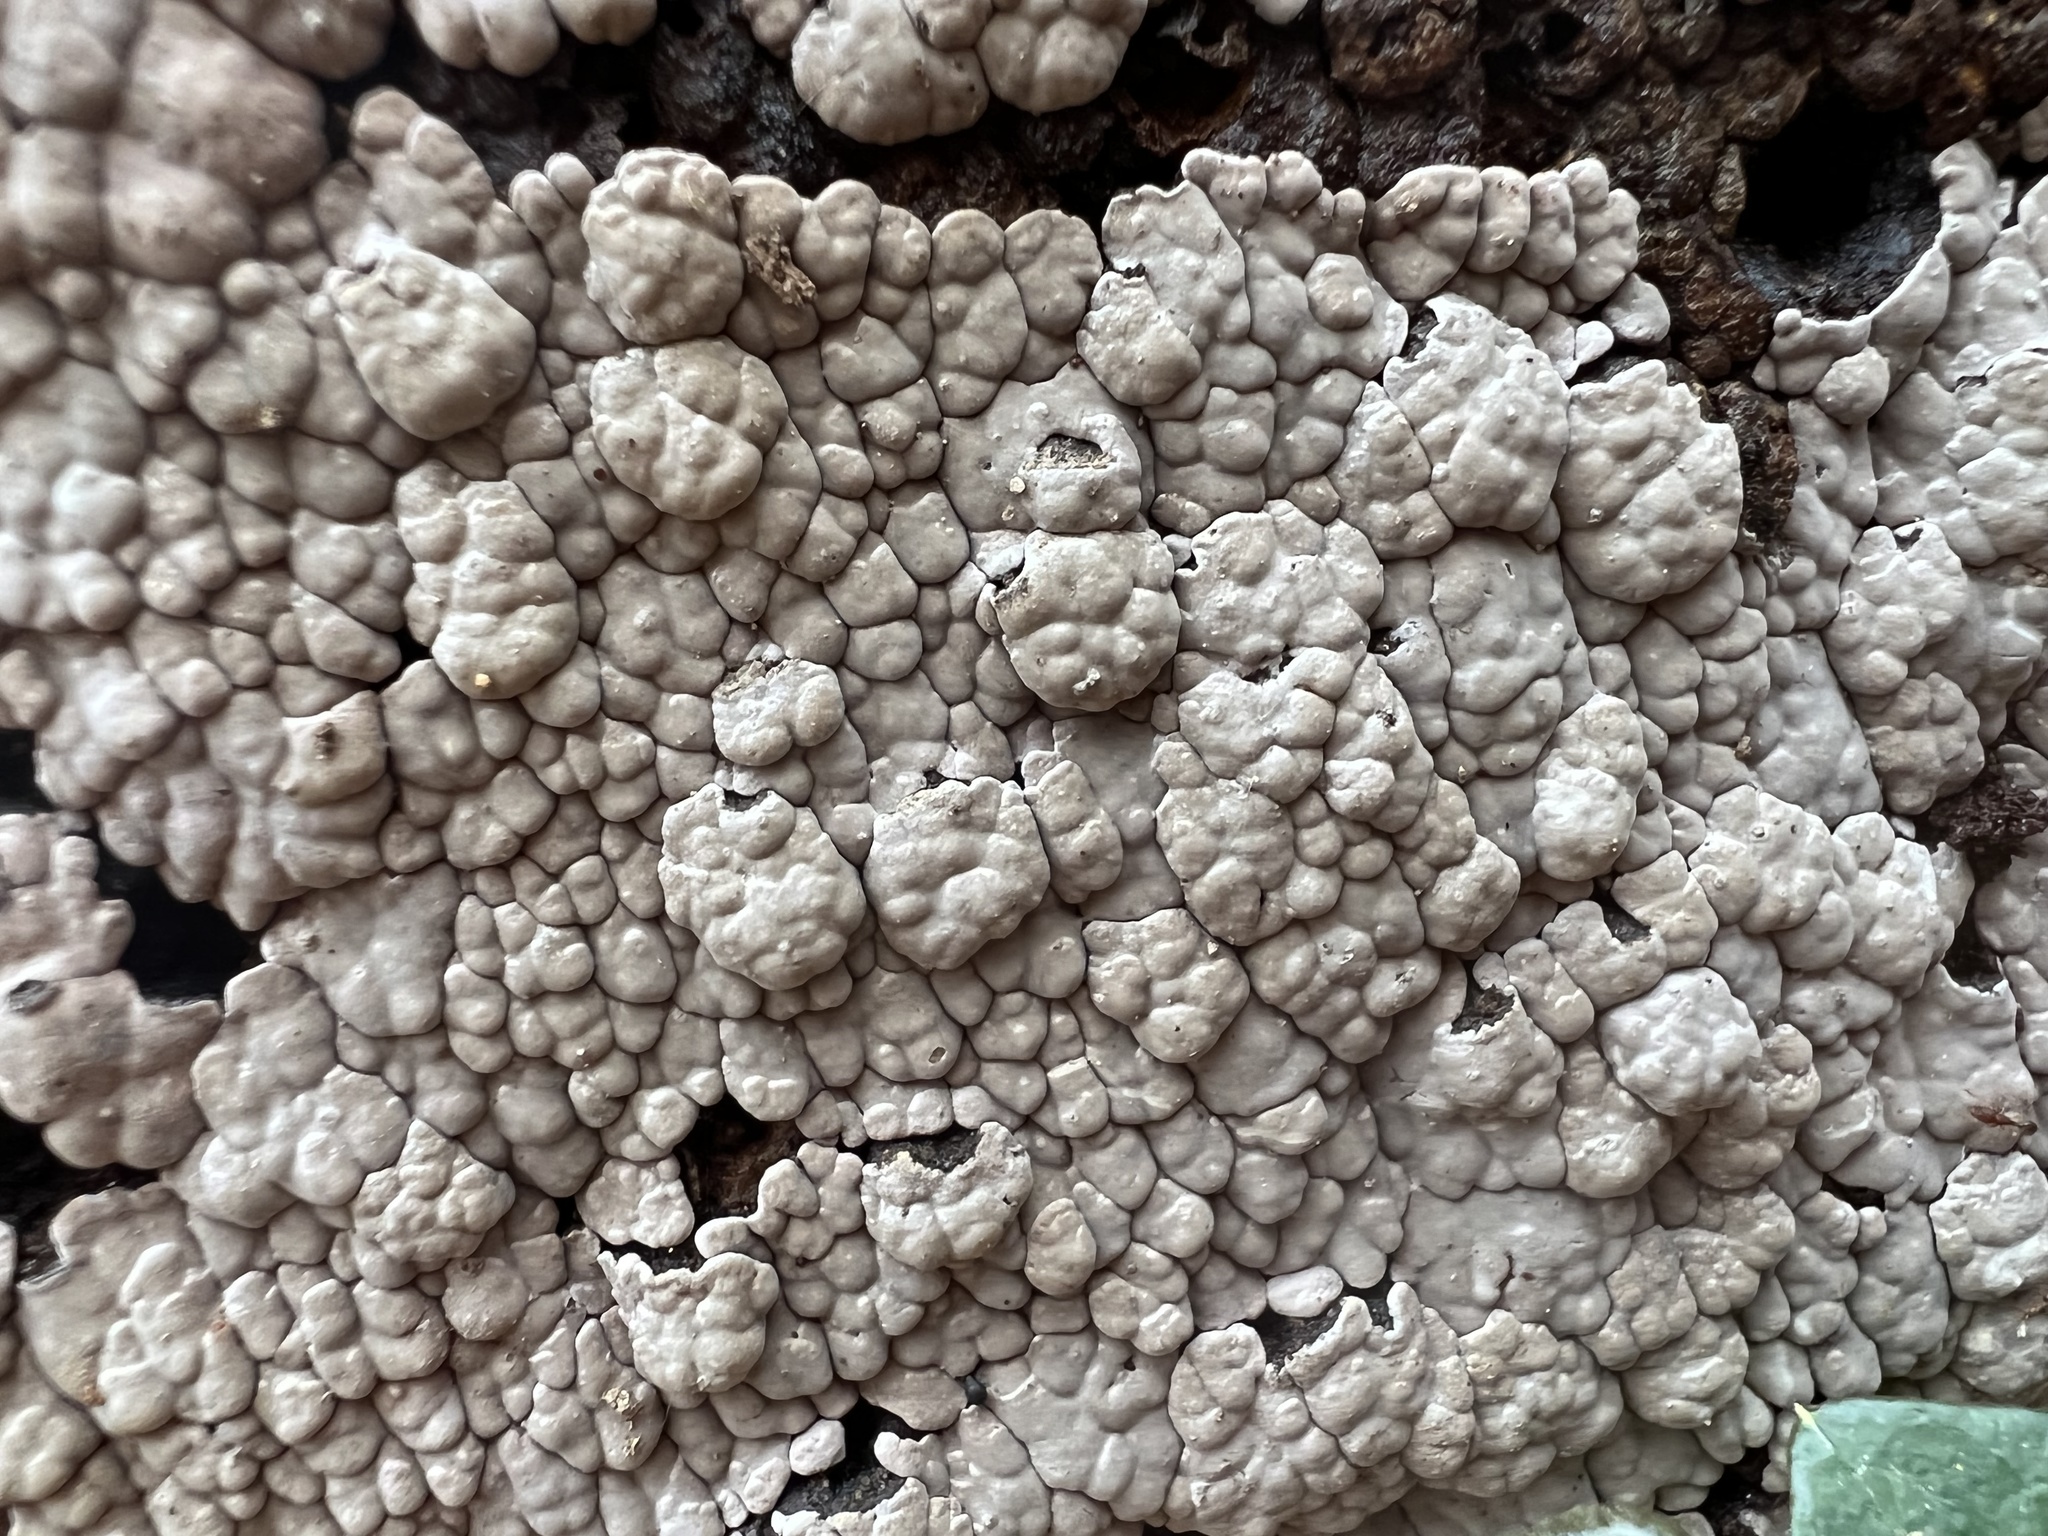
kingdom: Fungi
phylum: Basidiomycota
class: Agaricomycetes
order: Russulales
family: Stereaceae
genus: Xylobolus
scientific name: Xylobolus frustulatus
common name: Ceramic parchment
